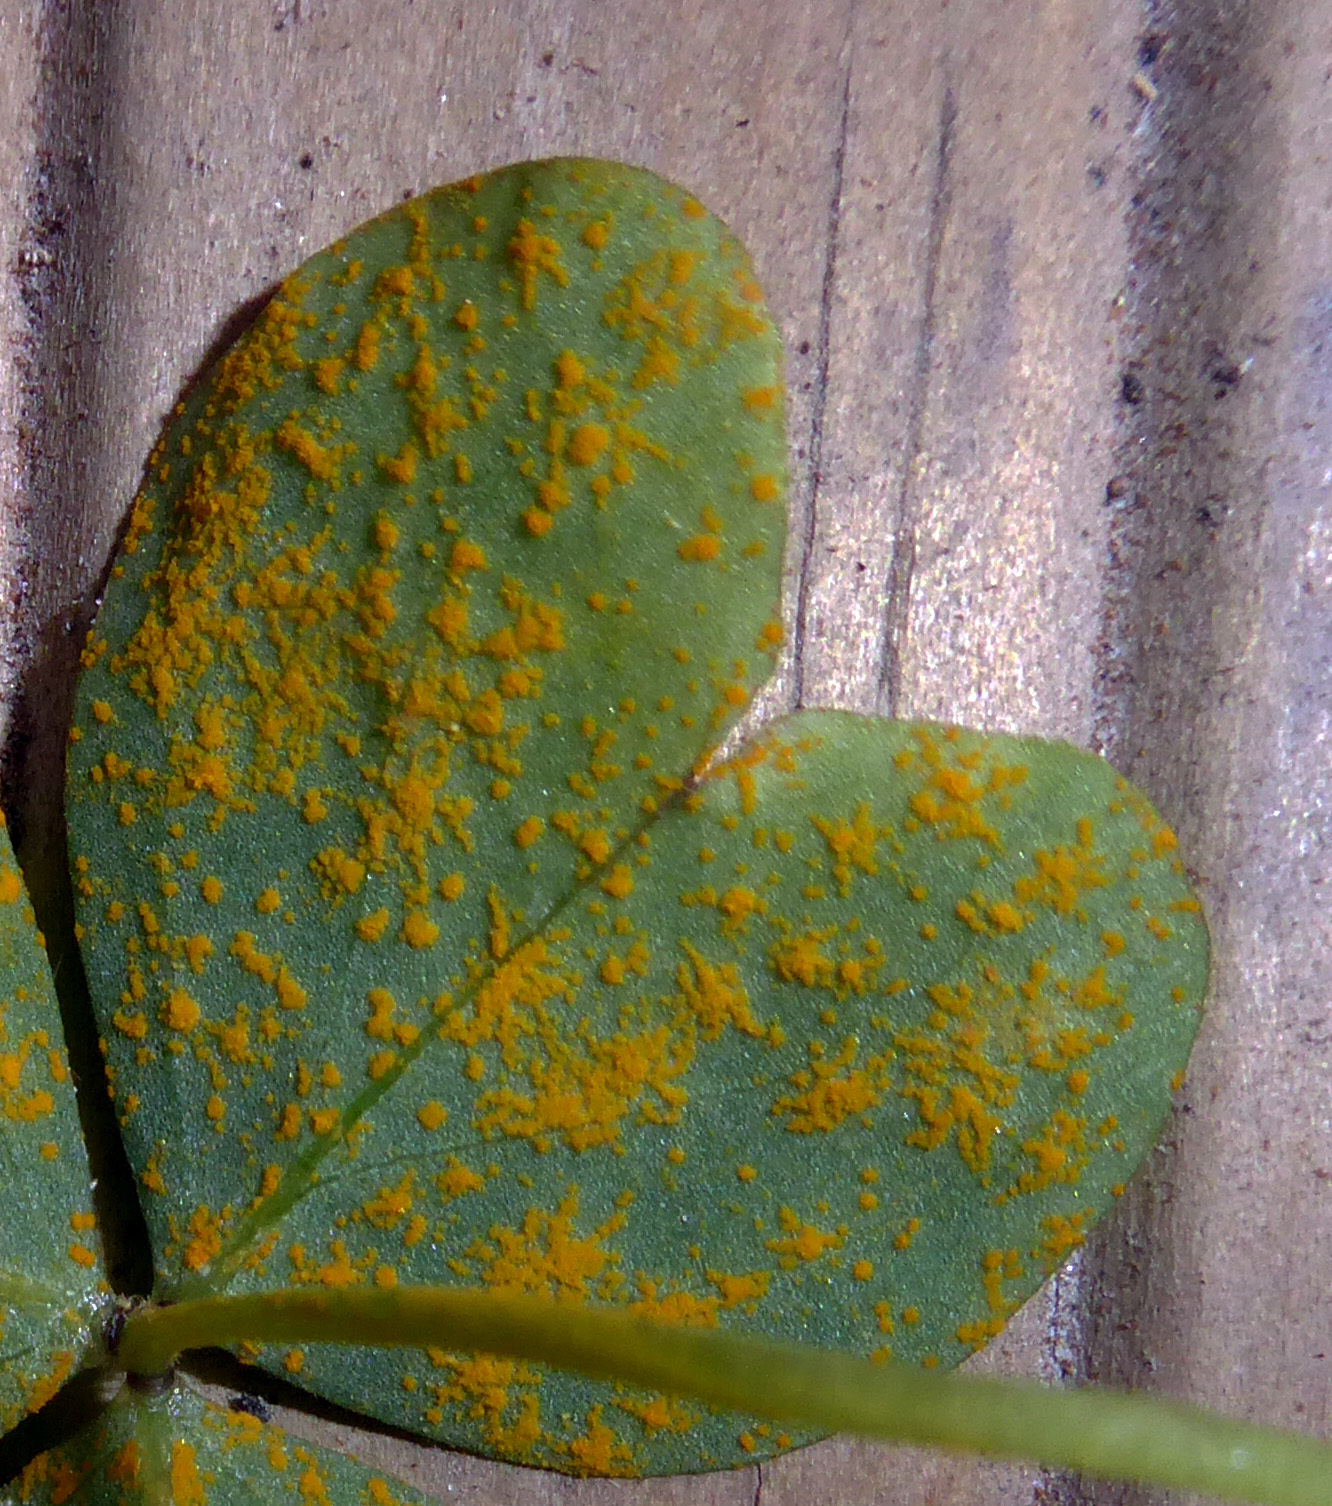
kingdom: Fungi
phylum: Basidiomycota
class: Pucciniomycetes
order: Pucciniales
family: Pucciniaceae
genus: Puccinia
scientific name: Puccinia oxalidis
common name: Oxalis rust
